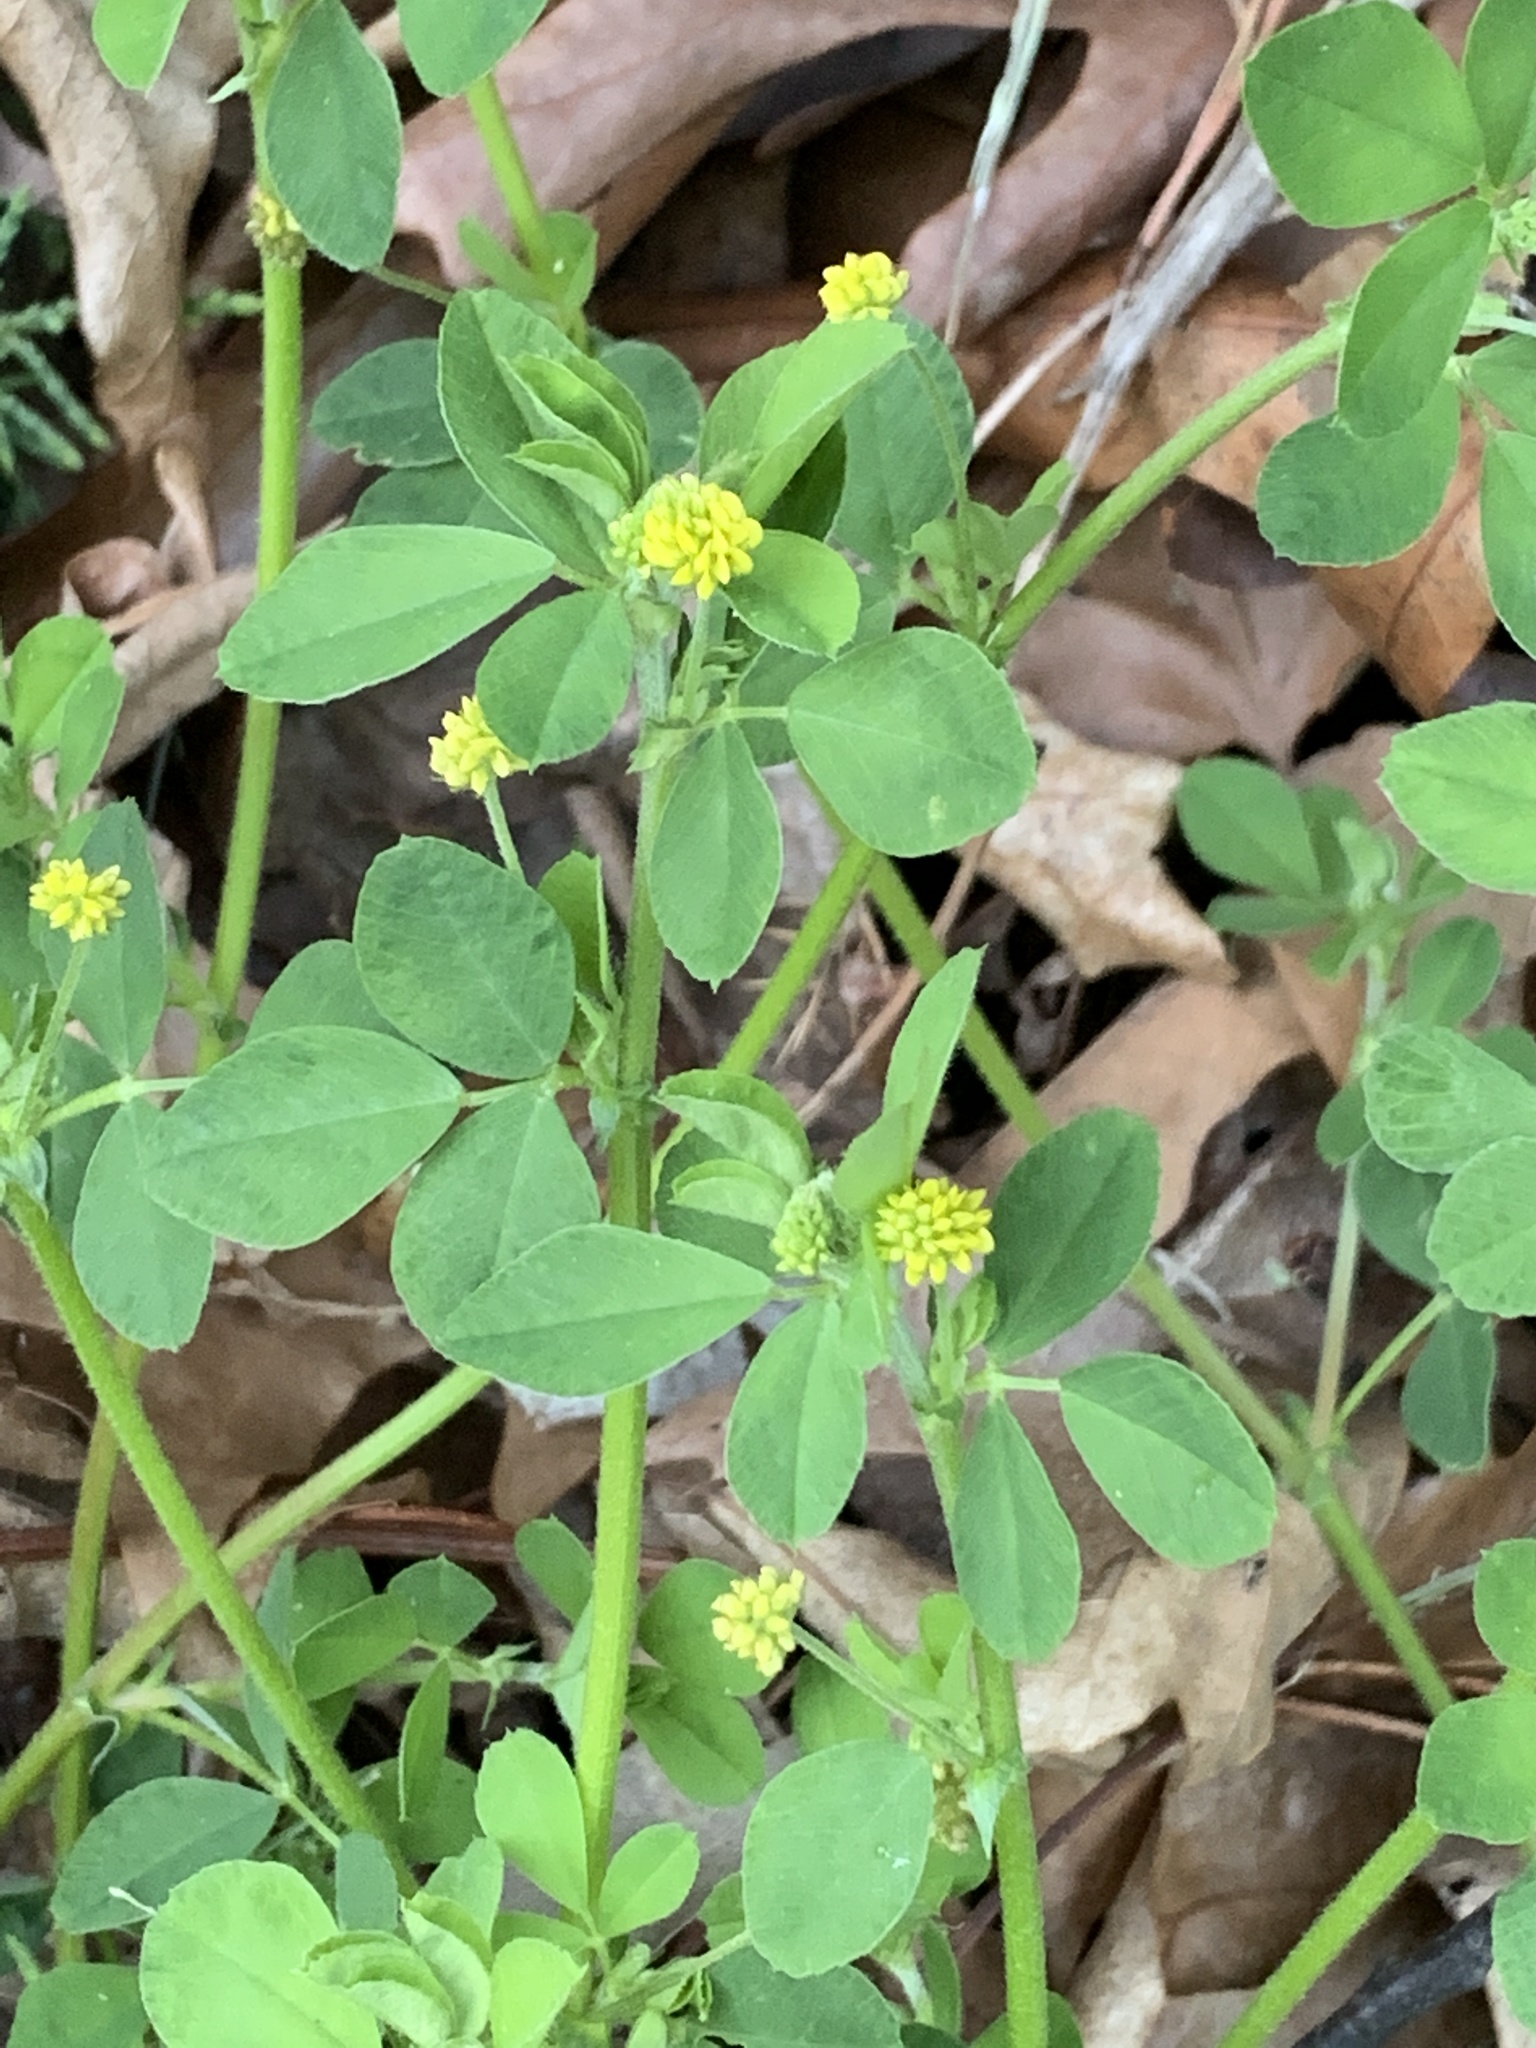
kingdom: Plantae
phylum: Tracheophyta
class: Magnoliopsida
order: Fabales
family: Fabaceae
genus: Medicago
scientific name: Medicago lupulina
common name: Black medick
